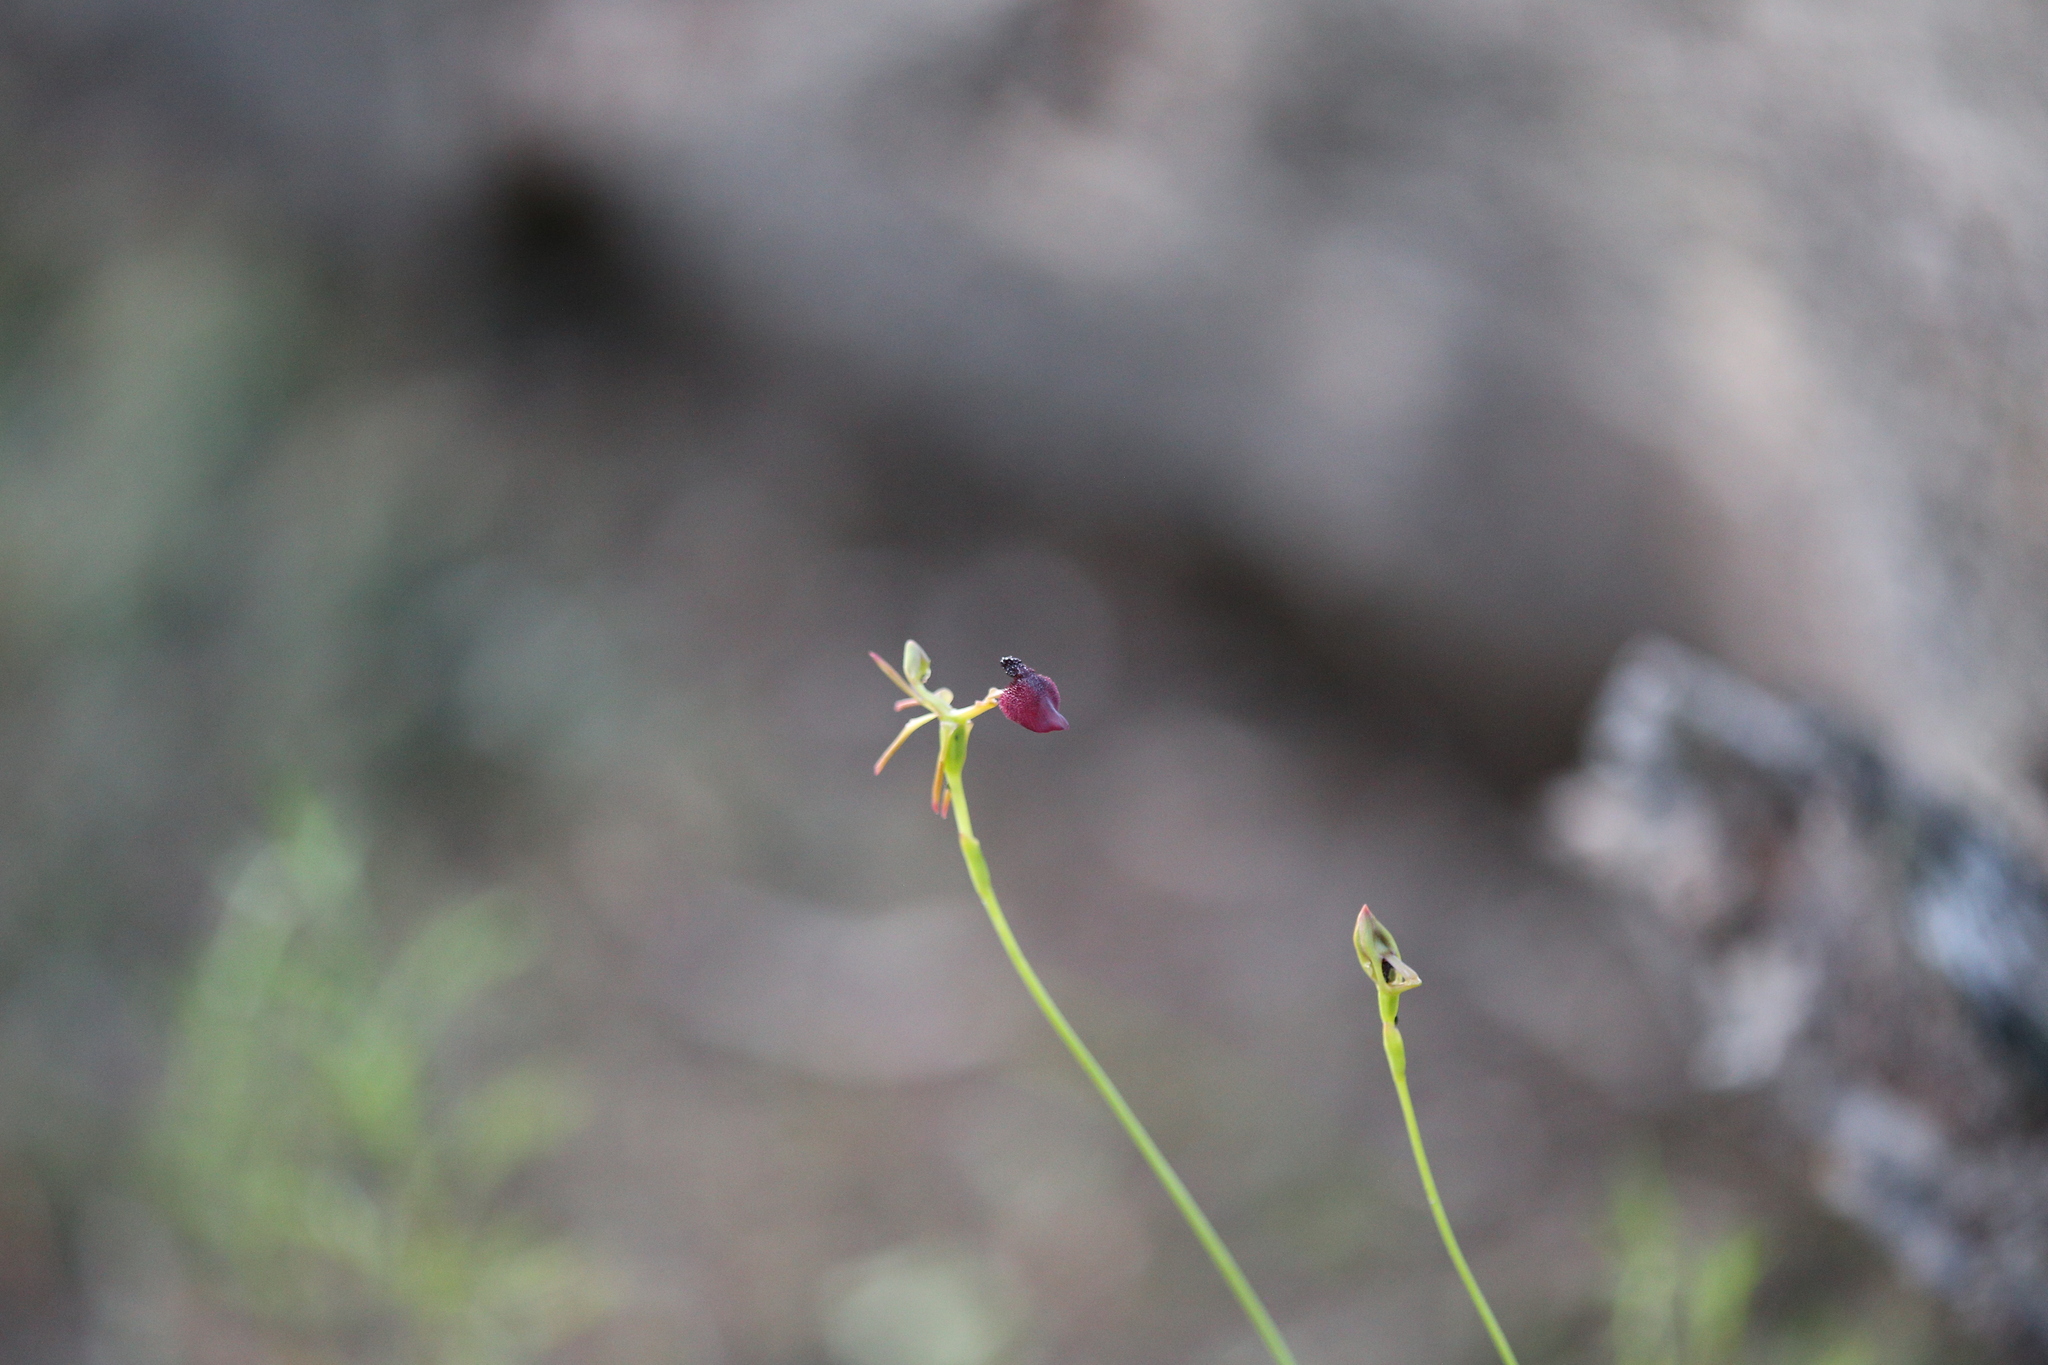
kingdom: Plantae
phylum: Tracheophyta
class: Liliopsida
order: Asparagales
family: Orchidaceae
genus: Drakaea
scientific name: Drakaea glyptodon
